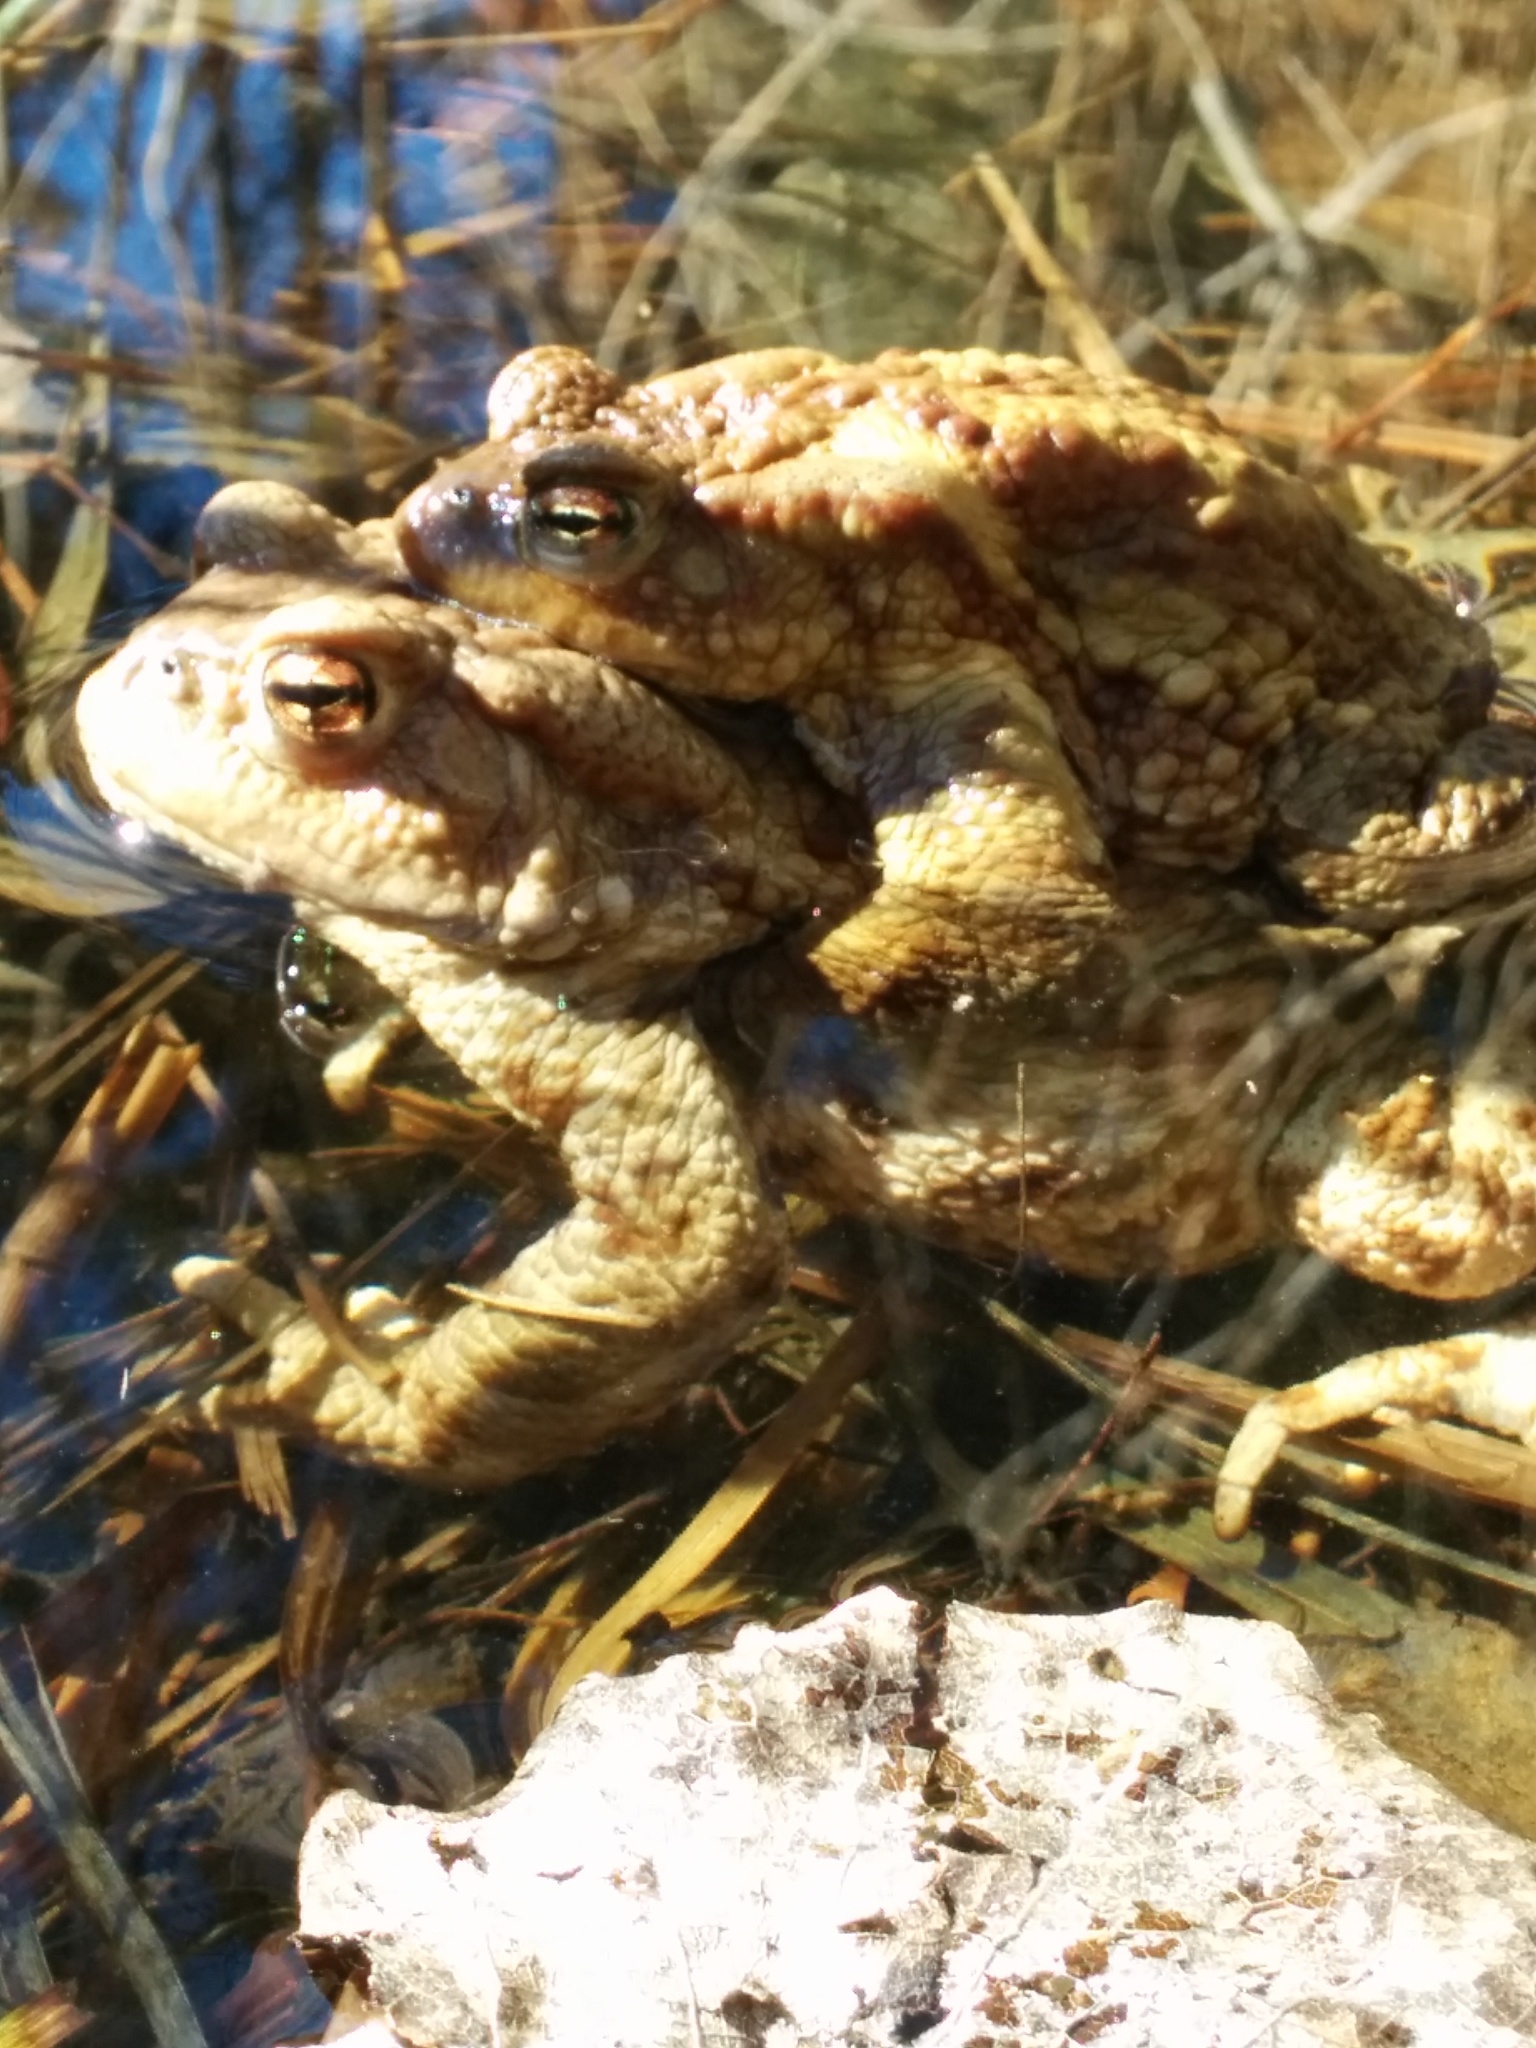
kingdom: Animalia
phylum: Chordata
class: Amphibia
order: Anura
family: Bufonidae
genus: Bufo
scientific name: Bufo bufo
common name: Common toad
